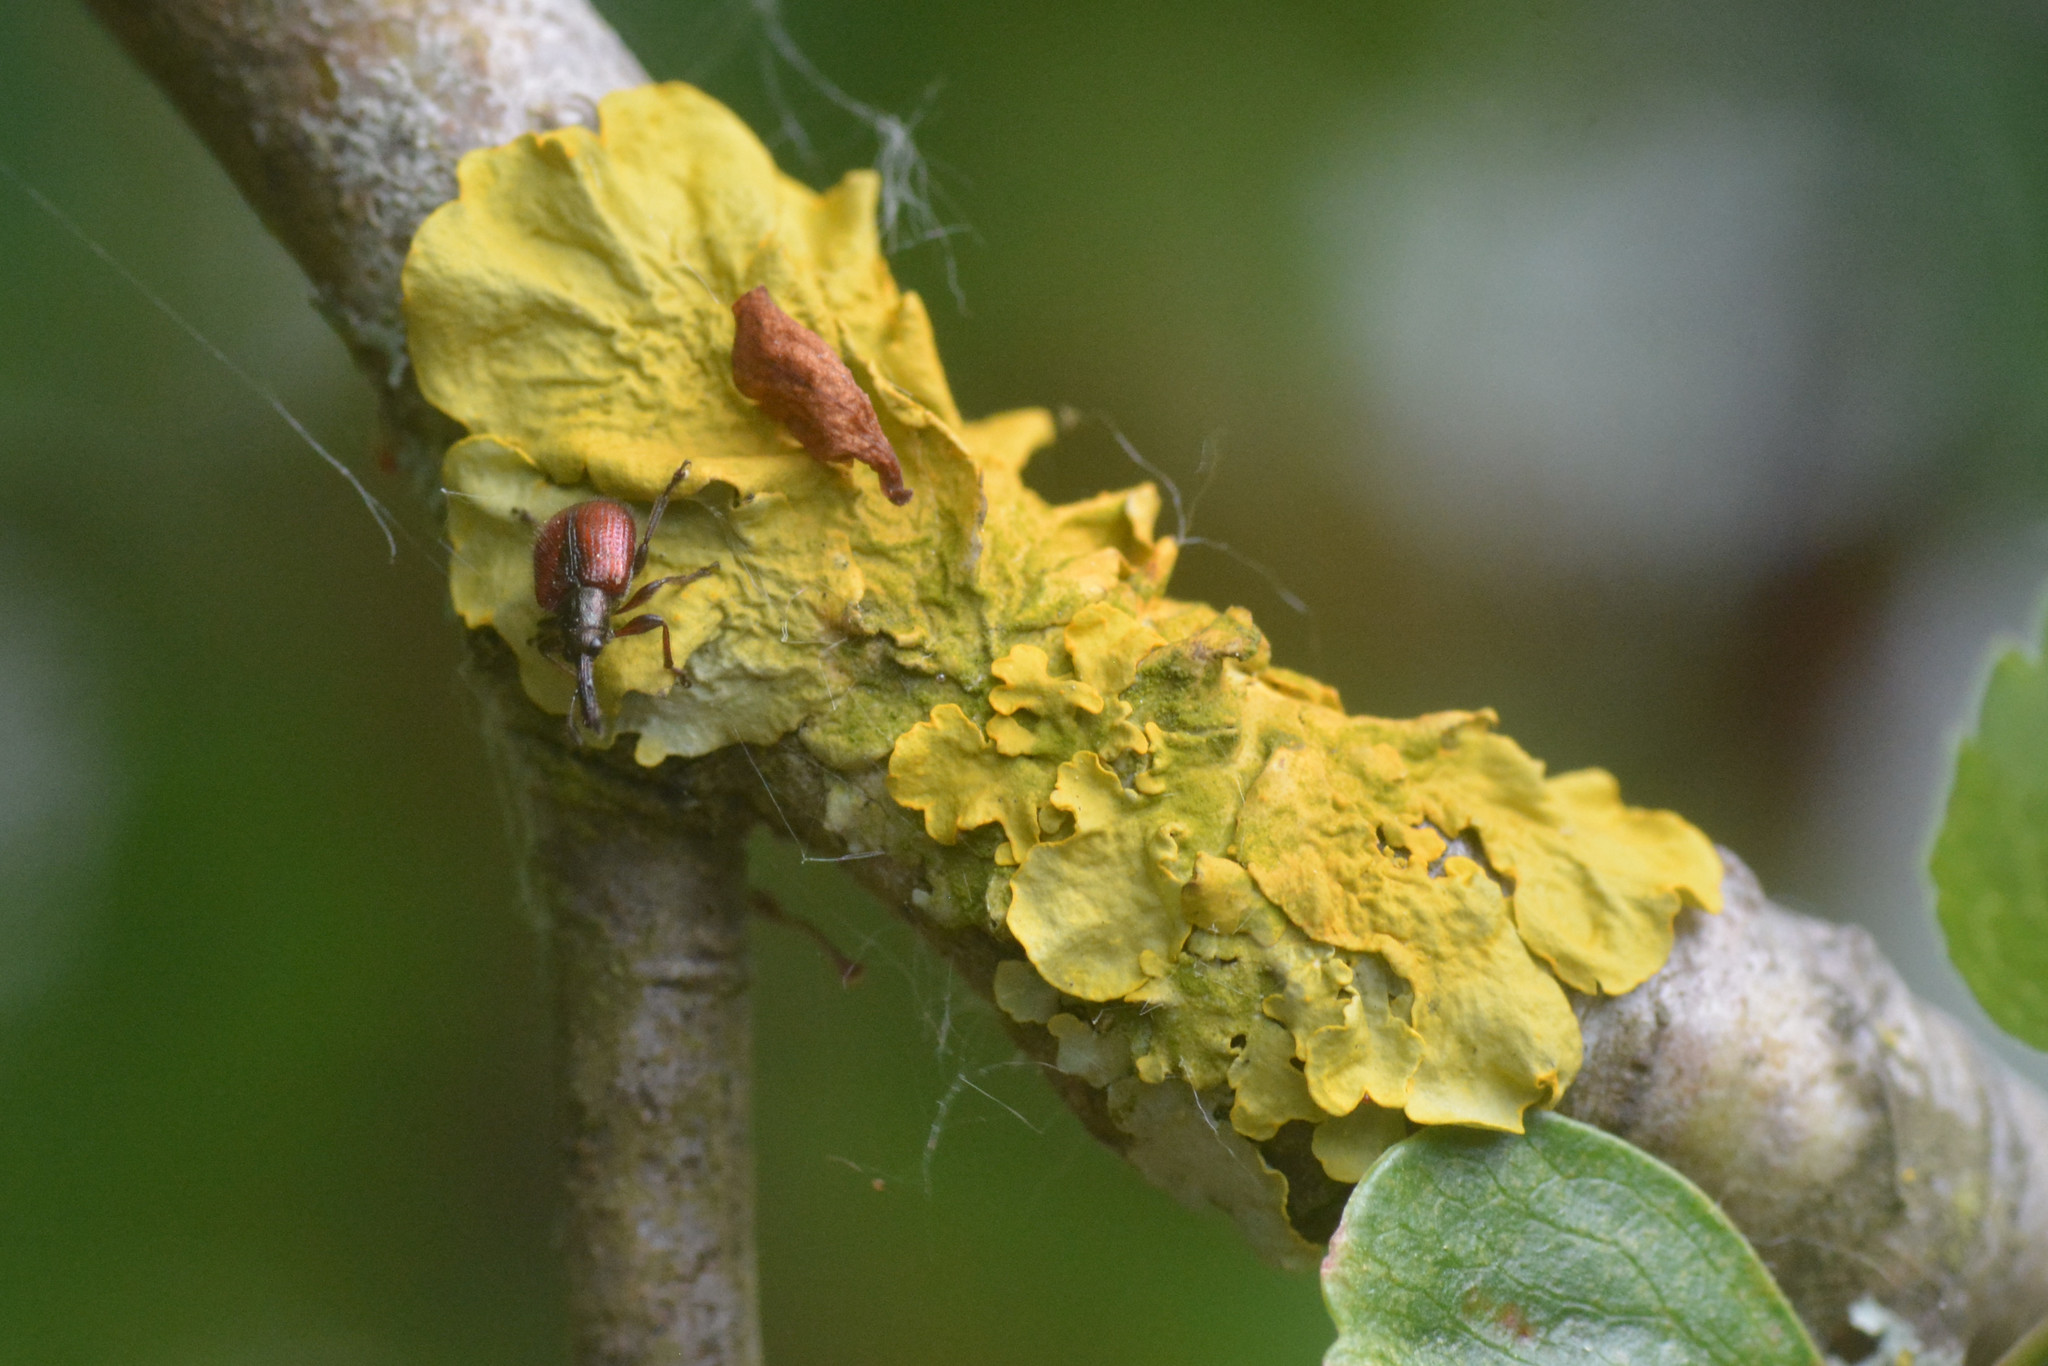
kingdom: Fungi
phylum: Ascomycota
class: Lecanoromycetes
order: Teloschistales
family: Teloschistaceae
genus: Xanthoria
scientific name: Xanthoria parietina
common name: Common orange lichen
